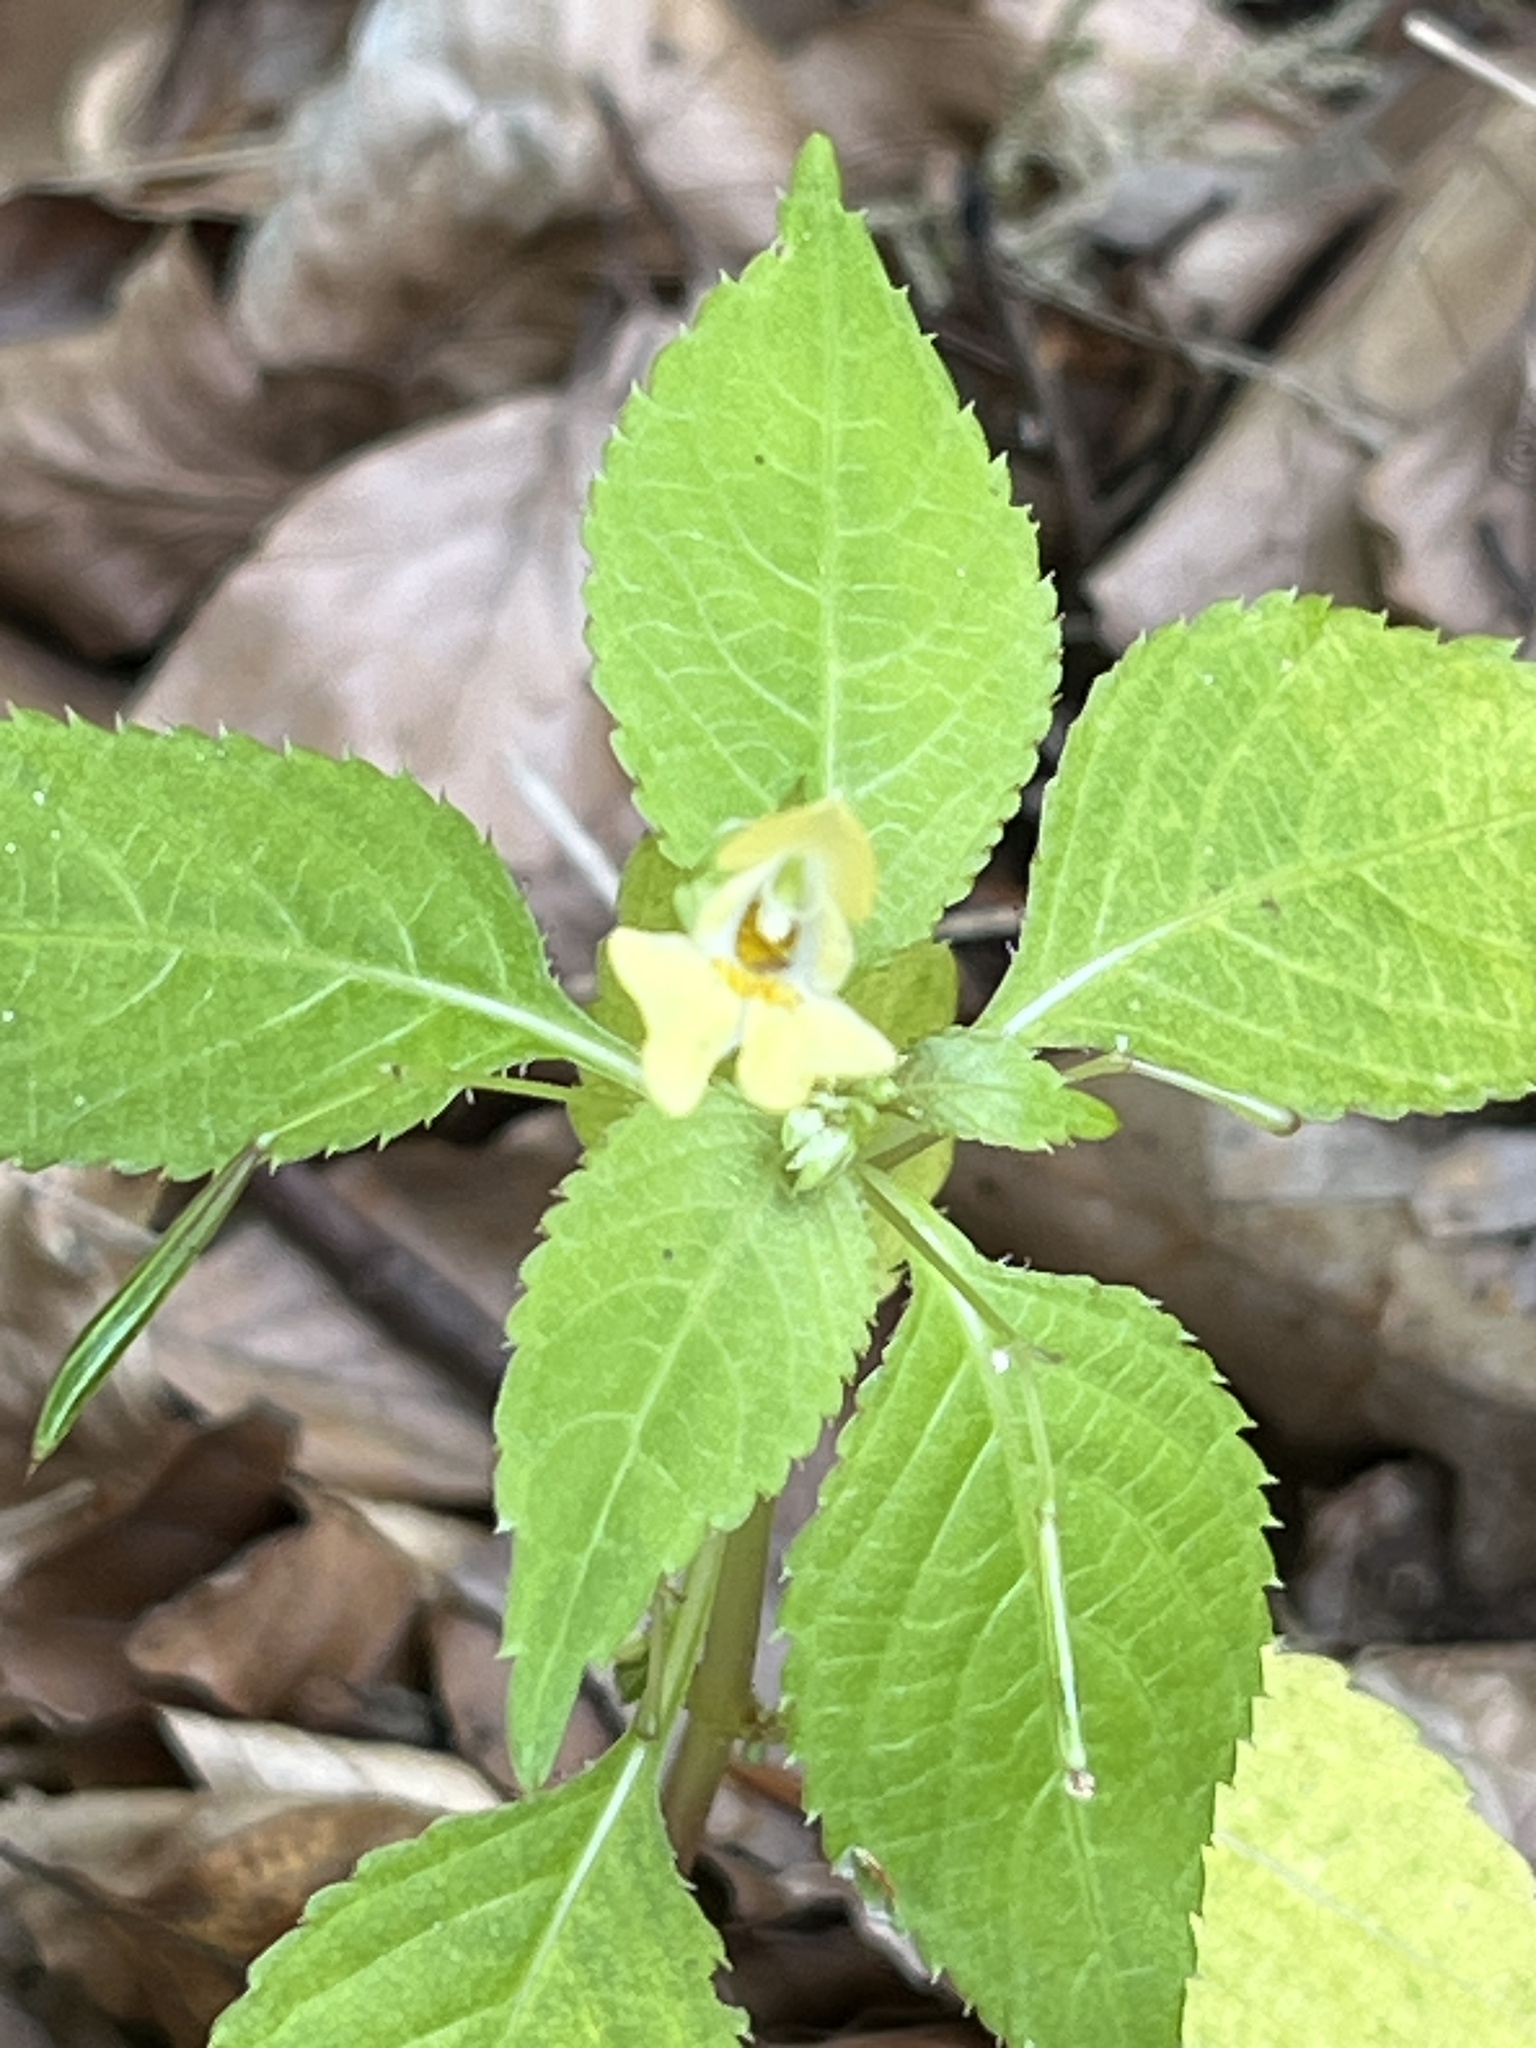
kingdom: Plantae
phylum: Tracheophyta
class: Magnoliopsida
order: Ericales
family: Balsaminaceae
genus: Impatiens
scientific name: Impatiens parviflora
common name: Small balsam
